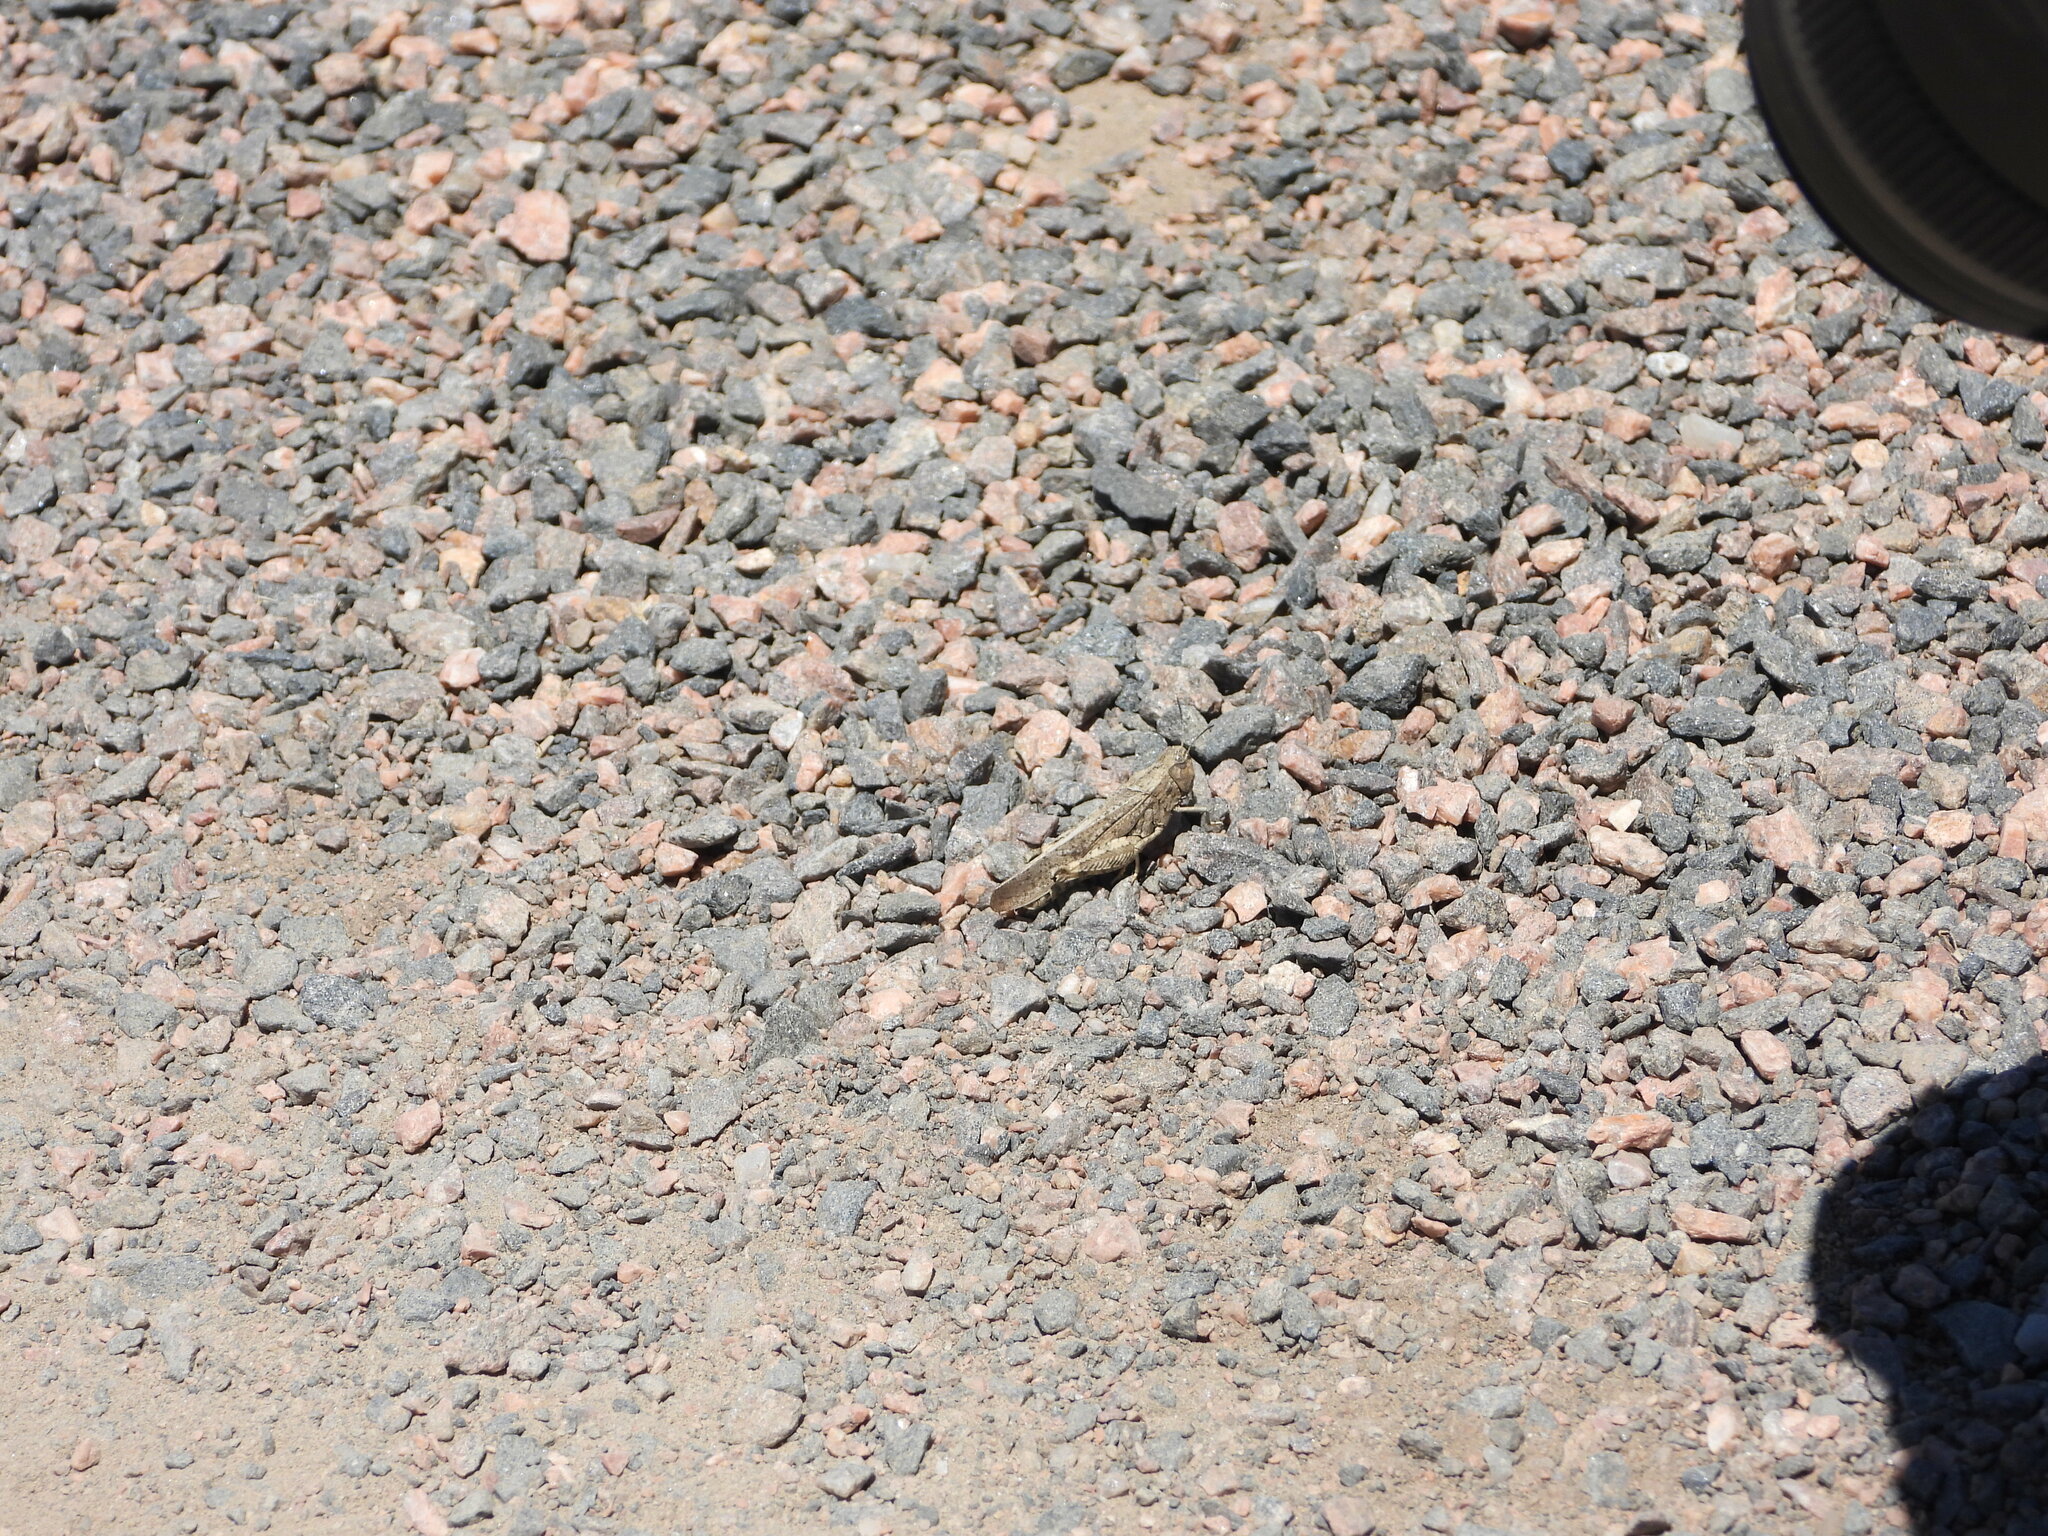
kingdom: Animalia
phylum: Arthropoda
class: Insecta
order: Orthoptera
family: Acrididae
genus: Arphia
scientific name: Arphia conspersa
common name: Speckle-winged rangeland grasshopper
